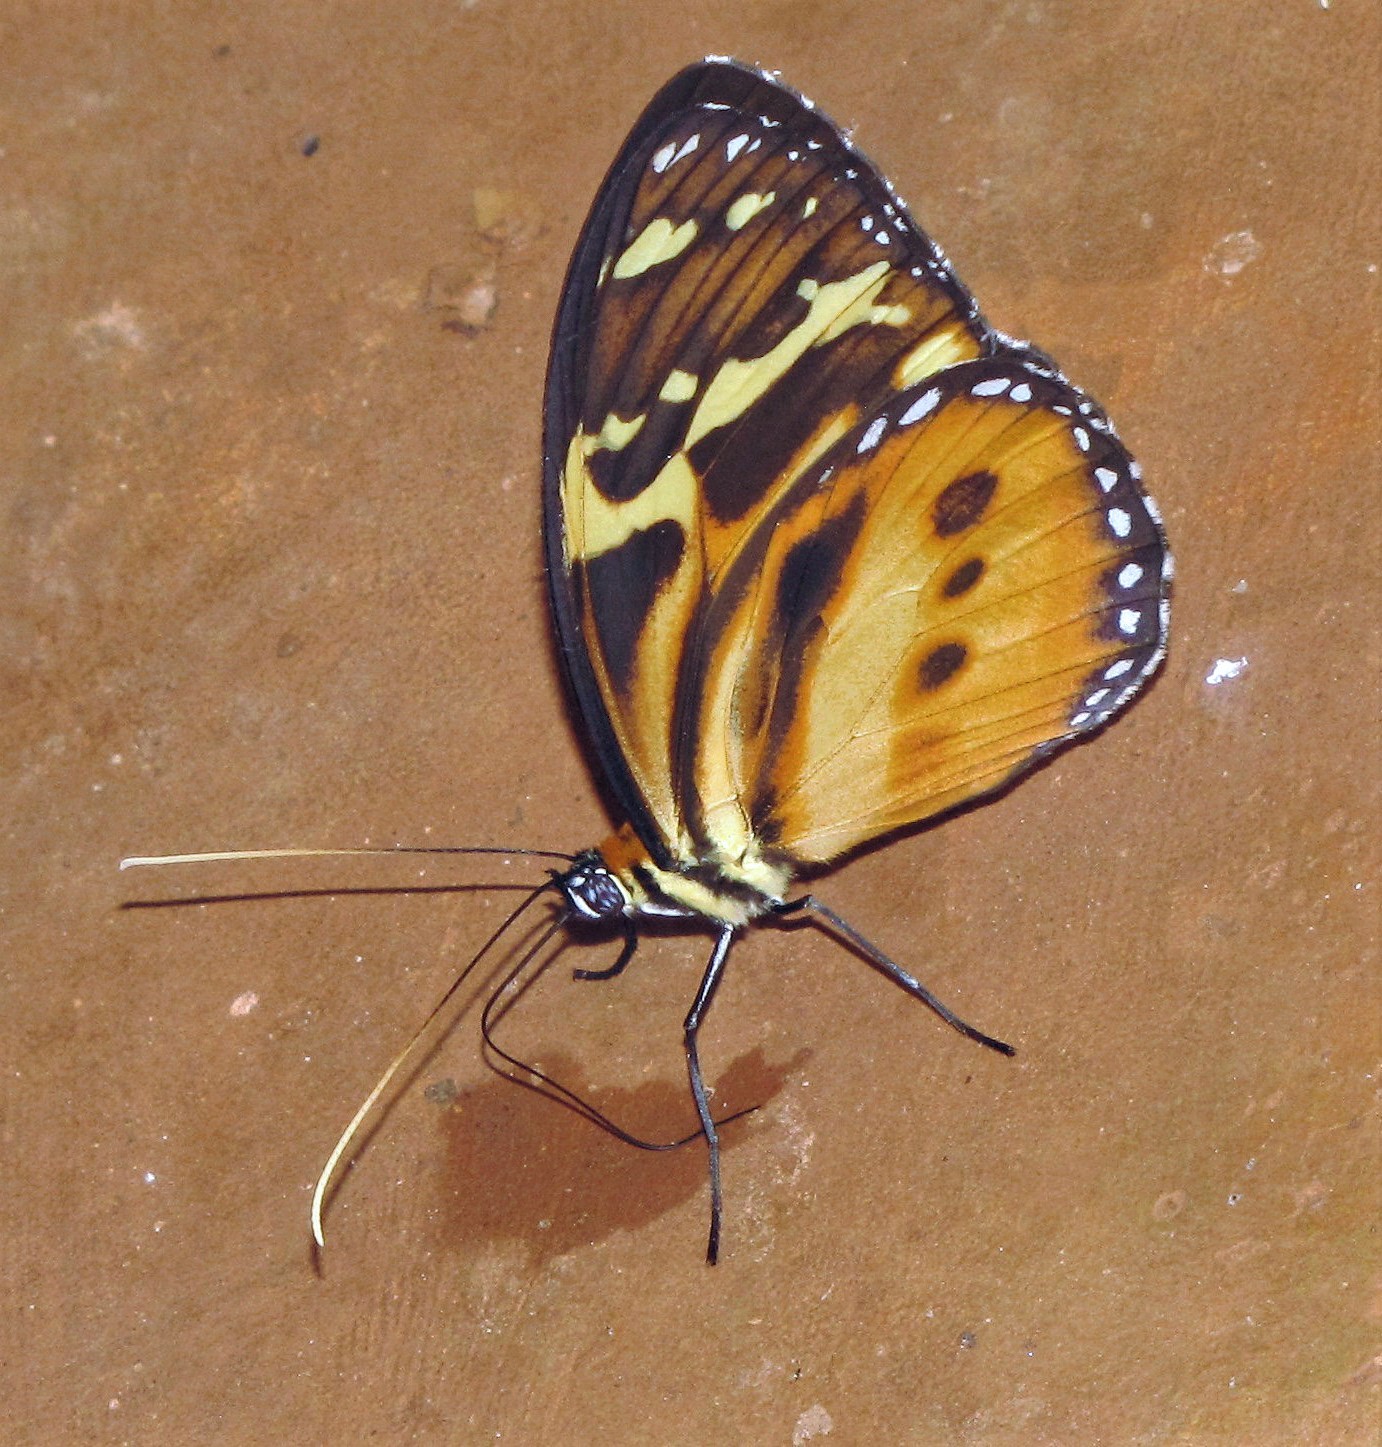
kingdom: Animalia
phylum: Arthropoda
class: Insecta
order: Lepidoptera
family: Nymphalidae
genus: Tithorea
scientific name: Tithorea harmonia
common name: Harmonia tigerwing
